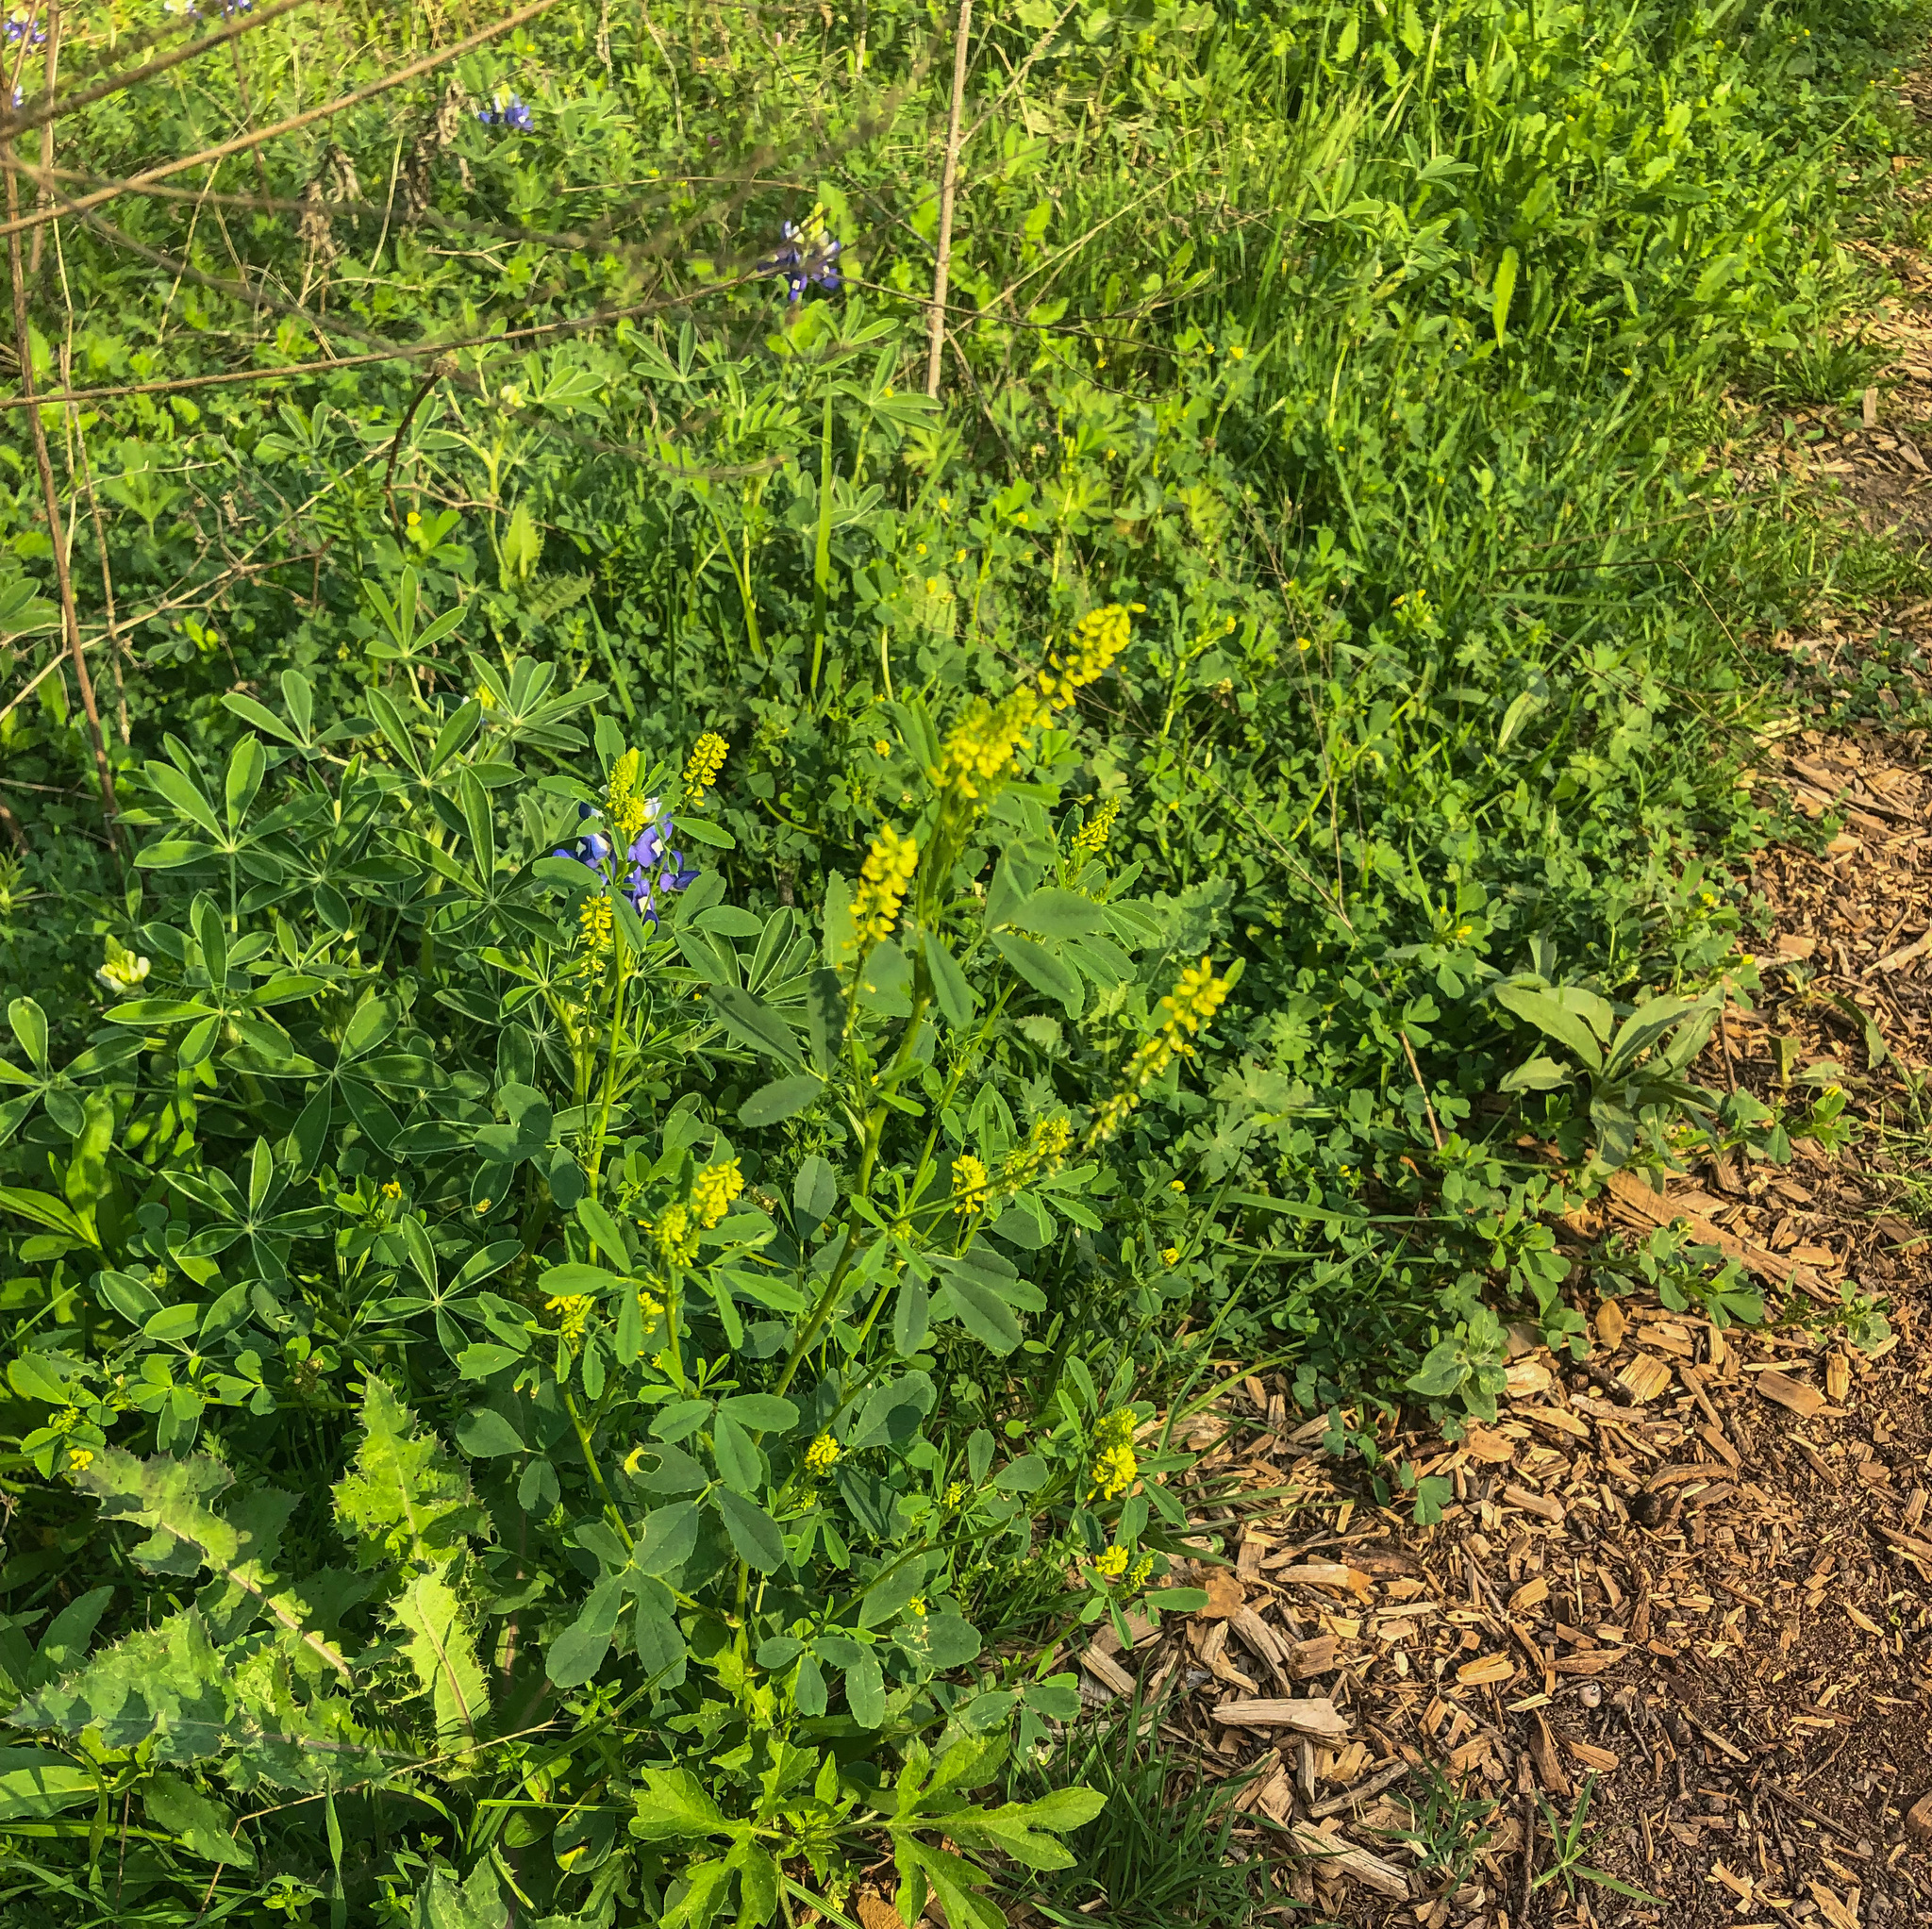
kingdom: Plantae
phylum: Tracheophyta
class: Magnoliopsida
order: Fabales
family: Fabaceae
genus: Melilotus
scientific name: Melilotus indicus
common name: Small melilot
